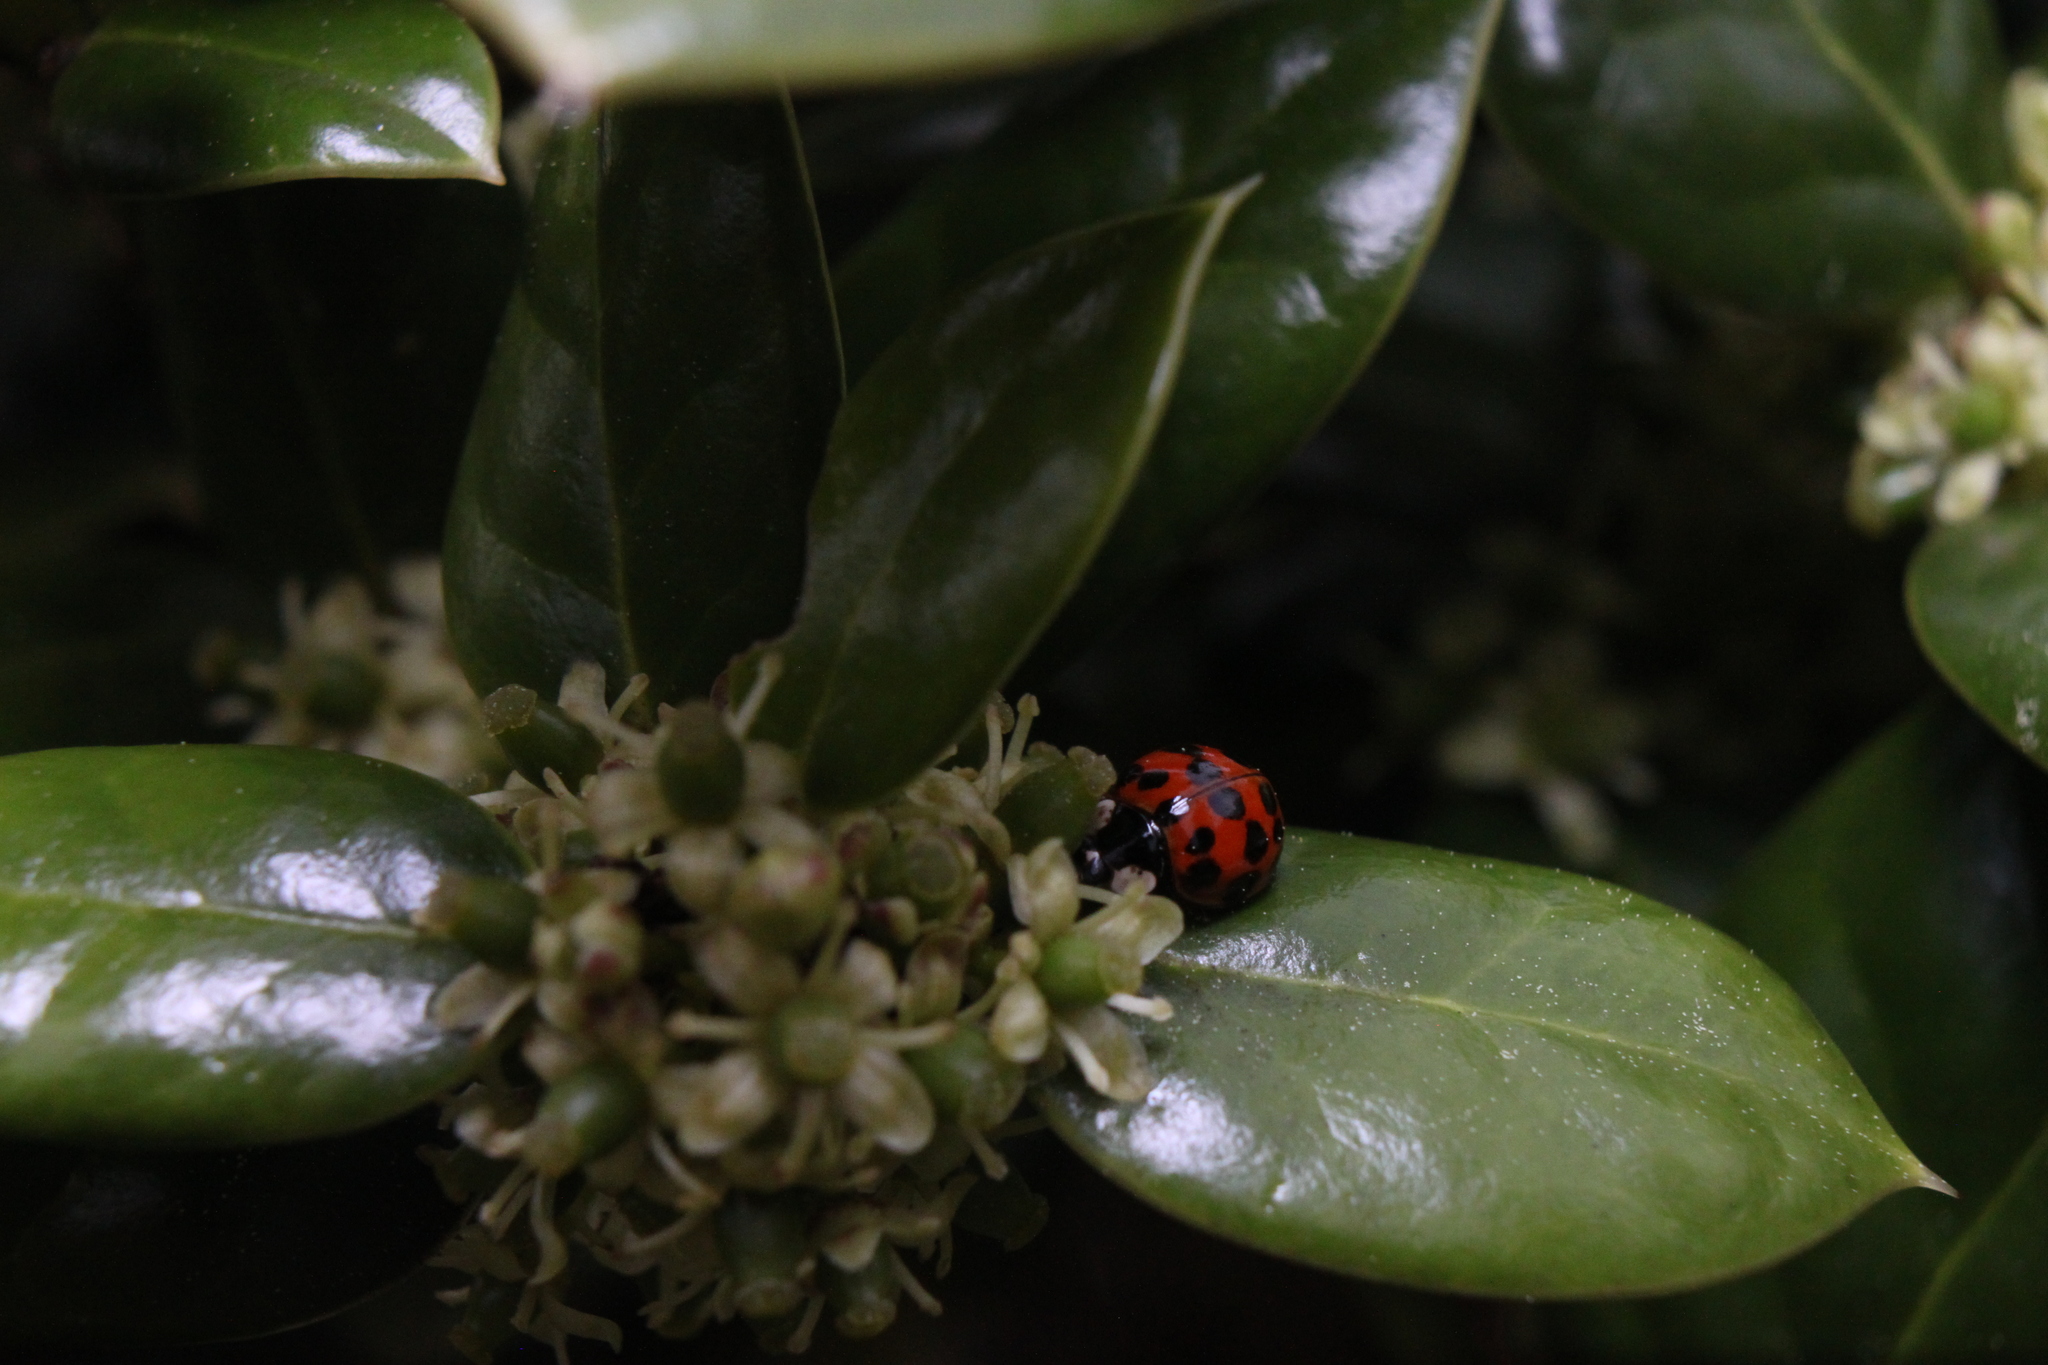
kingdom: Animalia
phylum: Arthropoda
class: Insecta
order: Coleoptera
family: Coccinellidae
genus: Harmonia
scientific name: Harmonia axyridis
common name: Harlequin ladybird
